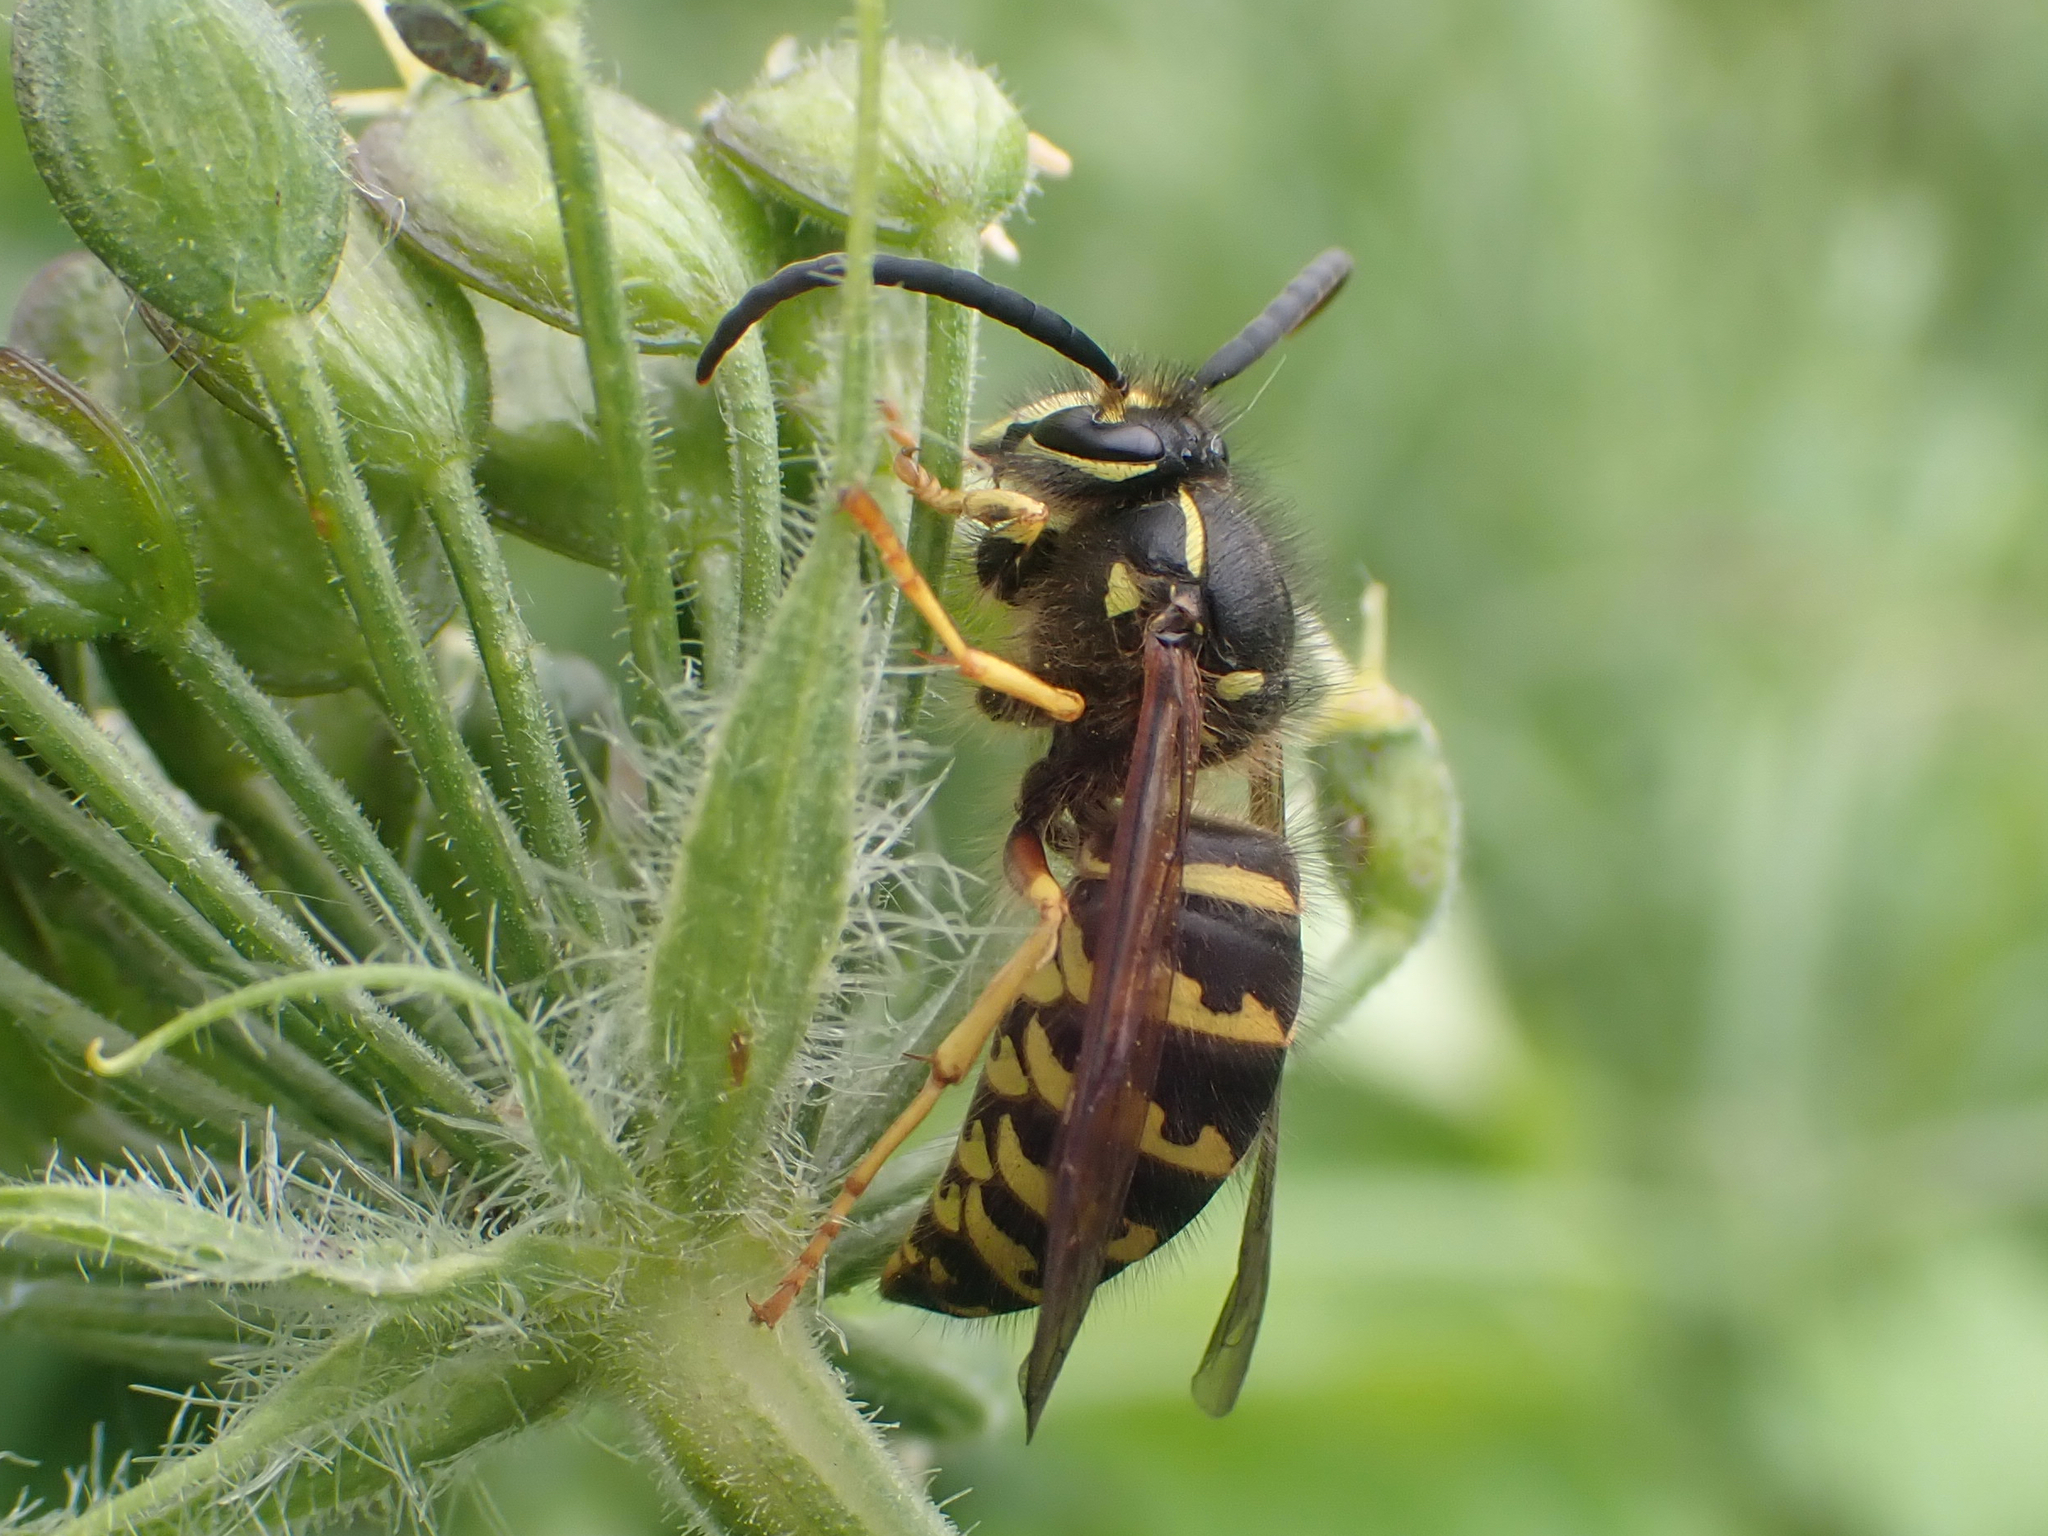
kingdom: Animalia
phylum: Arthropoda
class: Insecta
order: Hymenoptera
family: Vespidae
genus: Dolichovespula
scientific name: Dolichovespula arenaria
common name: Aerial yellowjacket
